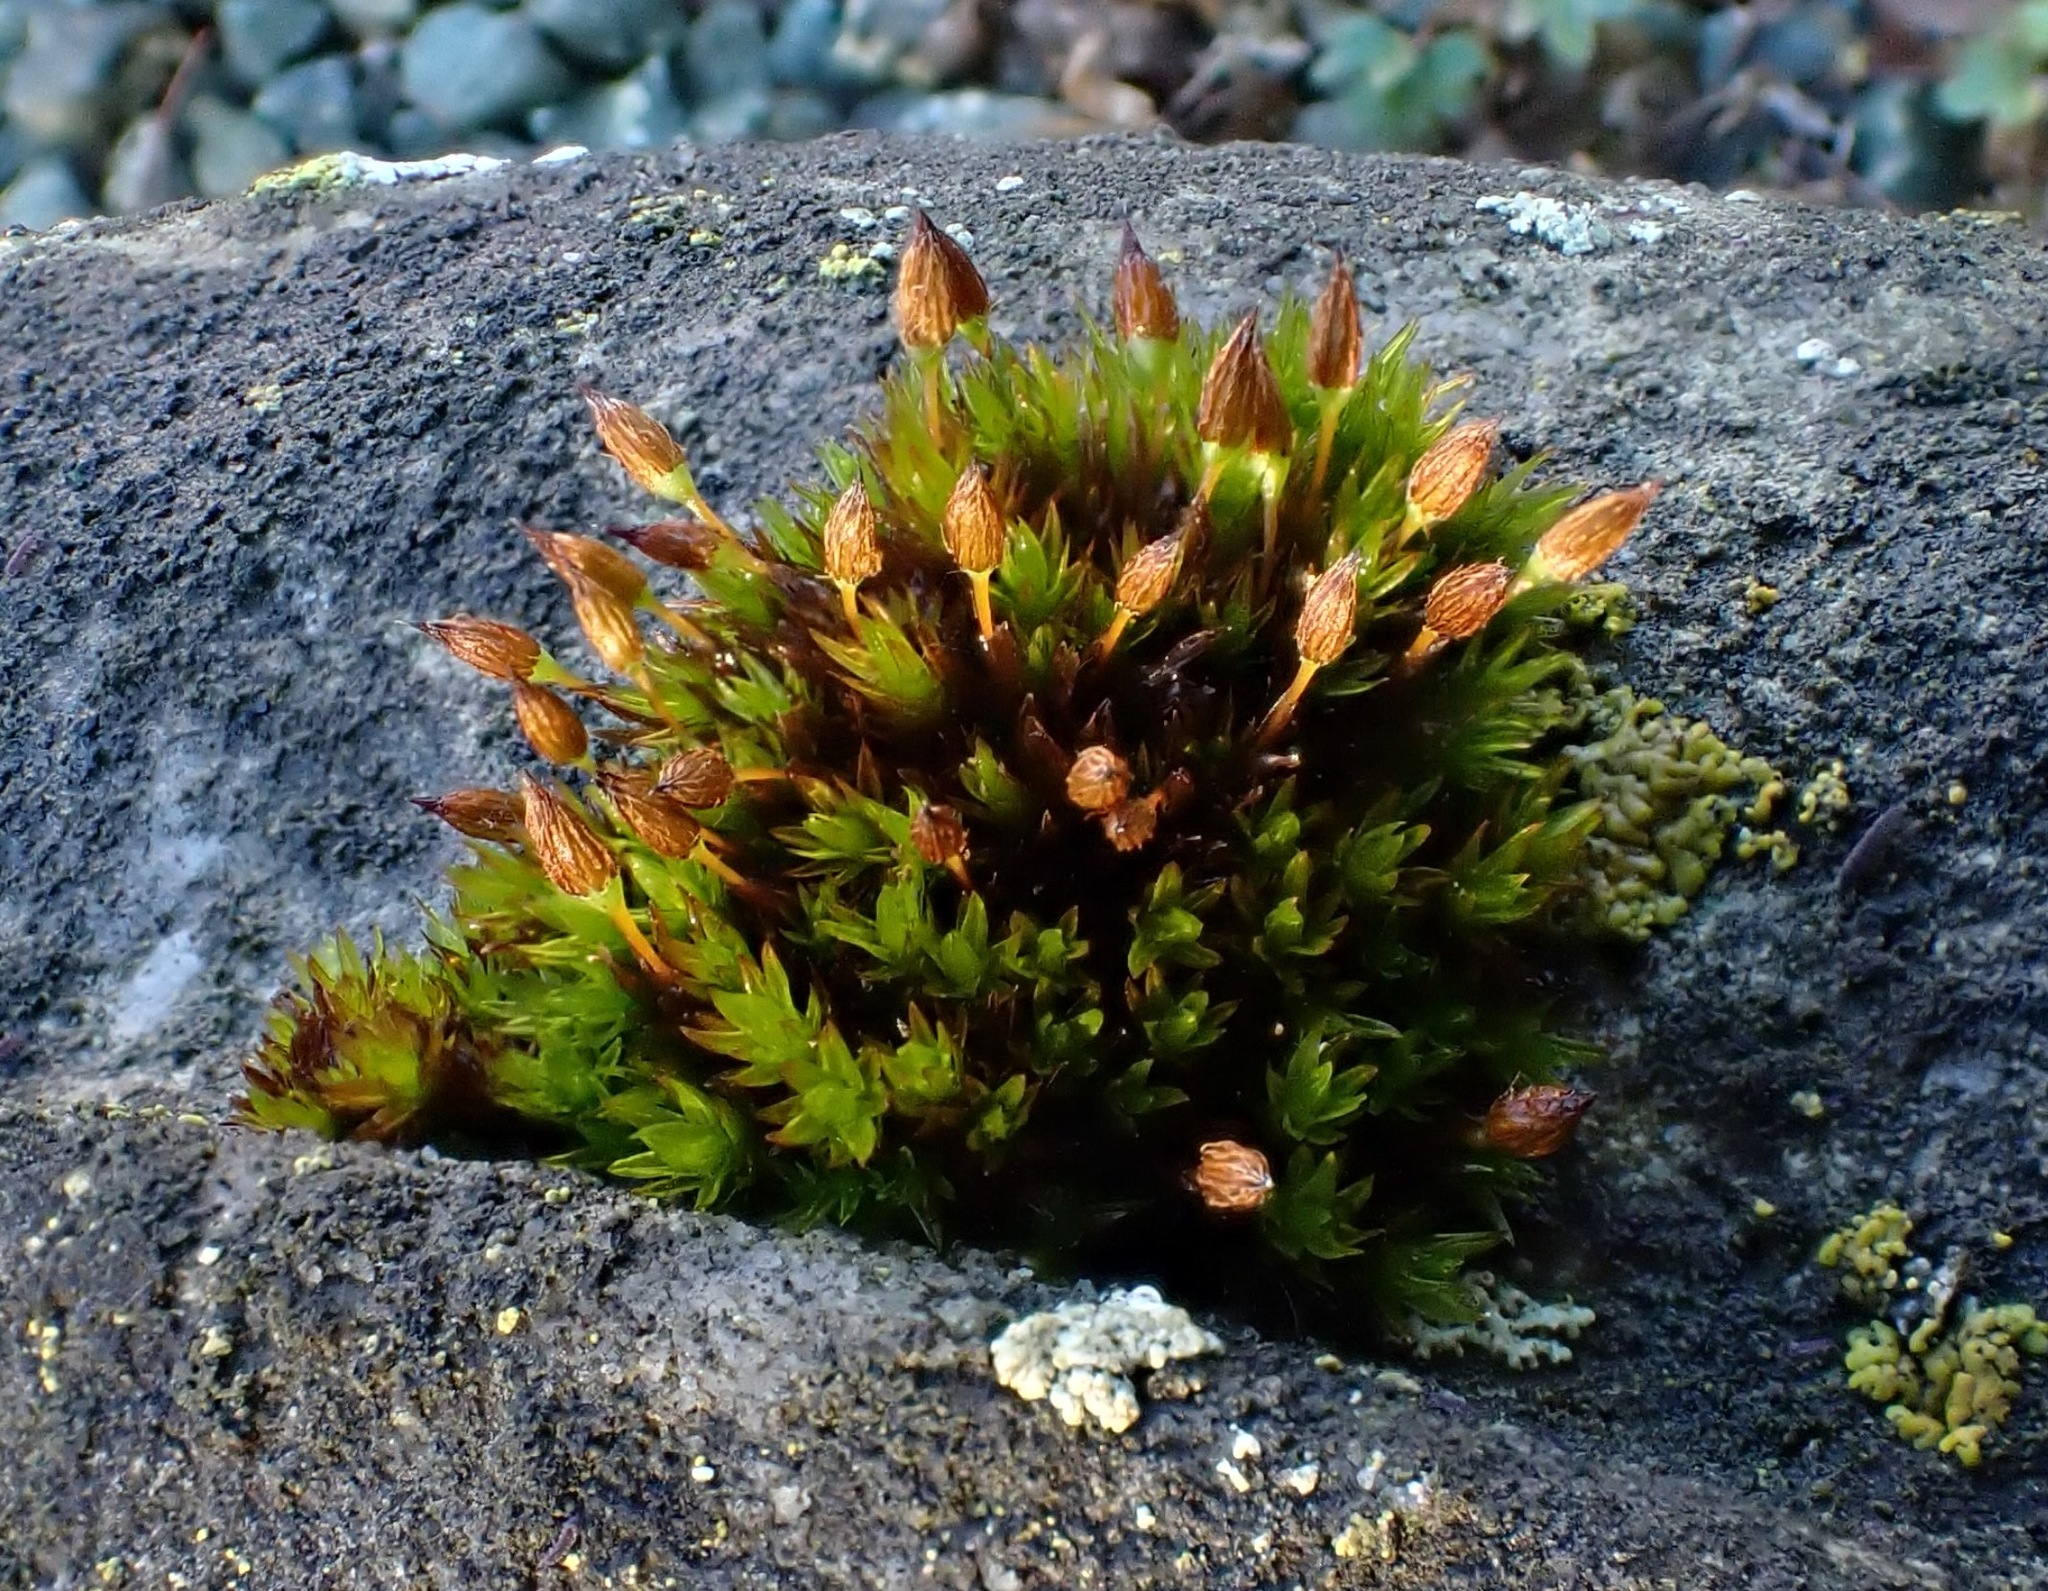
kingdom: Plantae
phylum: Bryophyta
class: Bryopsida
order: Orthotrichales
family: Orthotrichaceae
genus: Orthotrichum
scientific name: Orthotrichum anomalum
